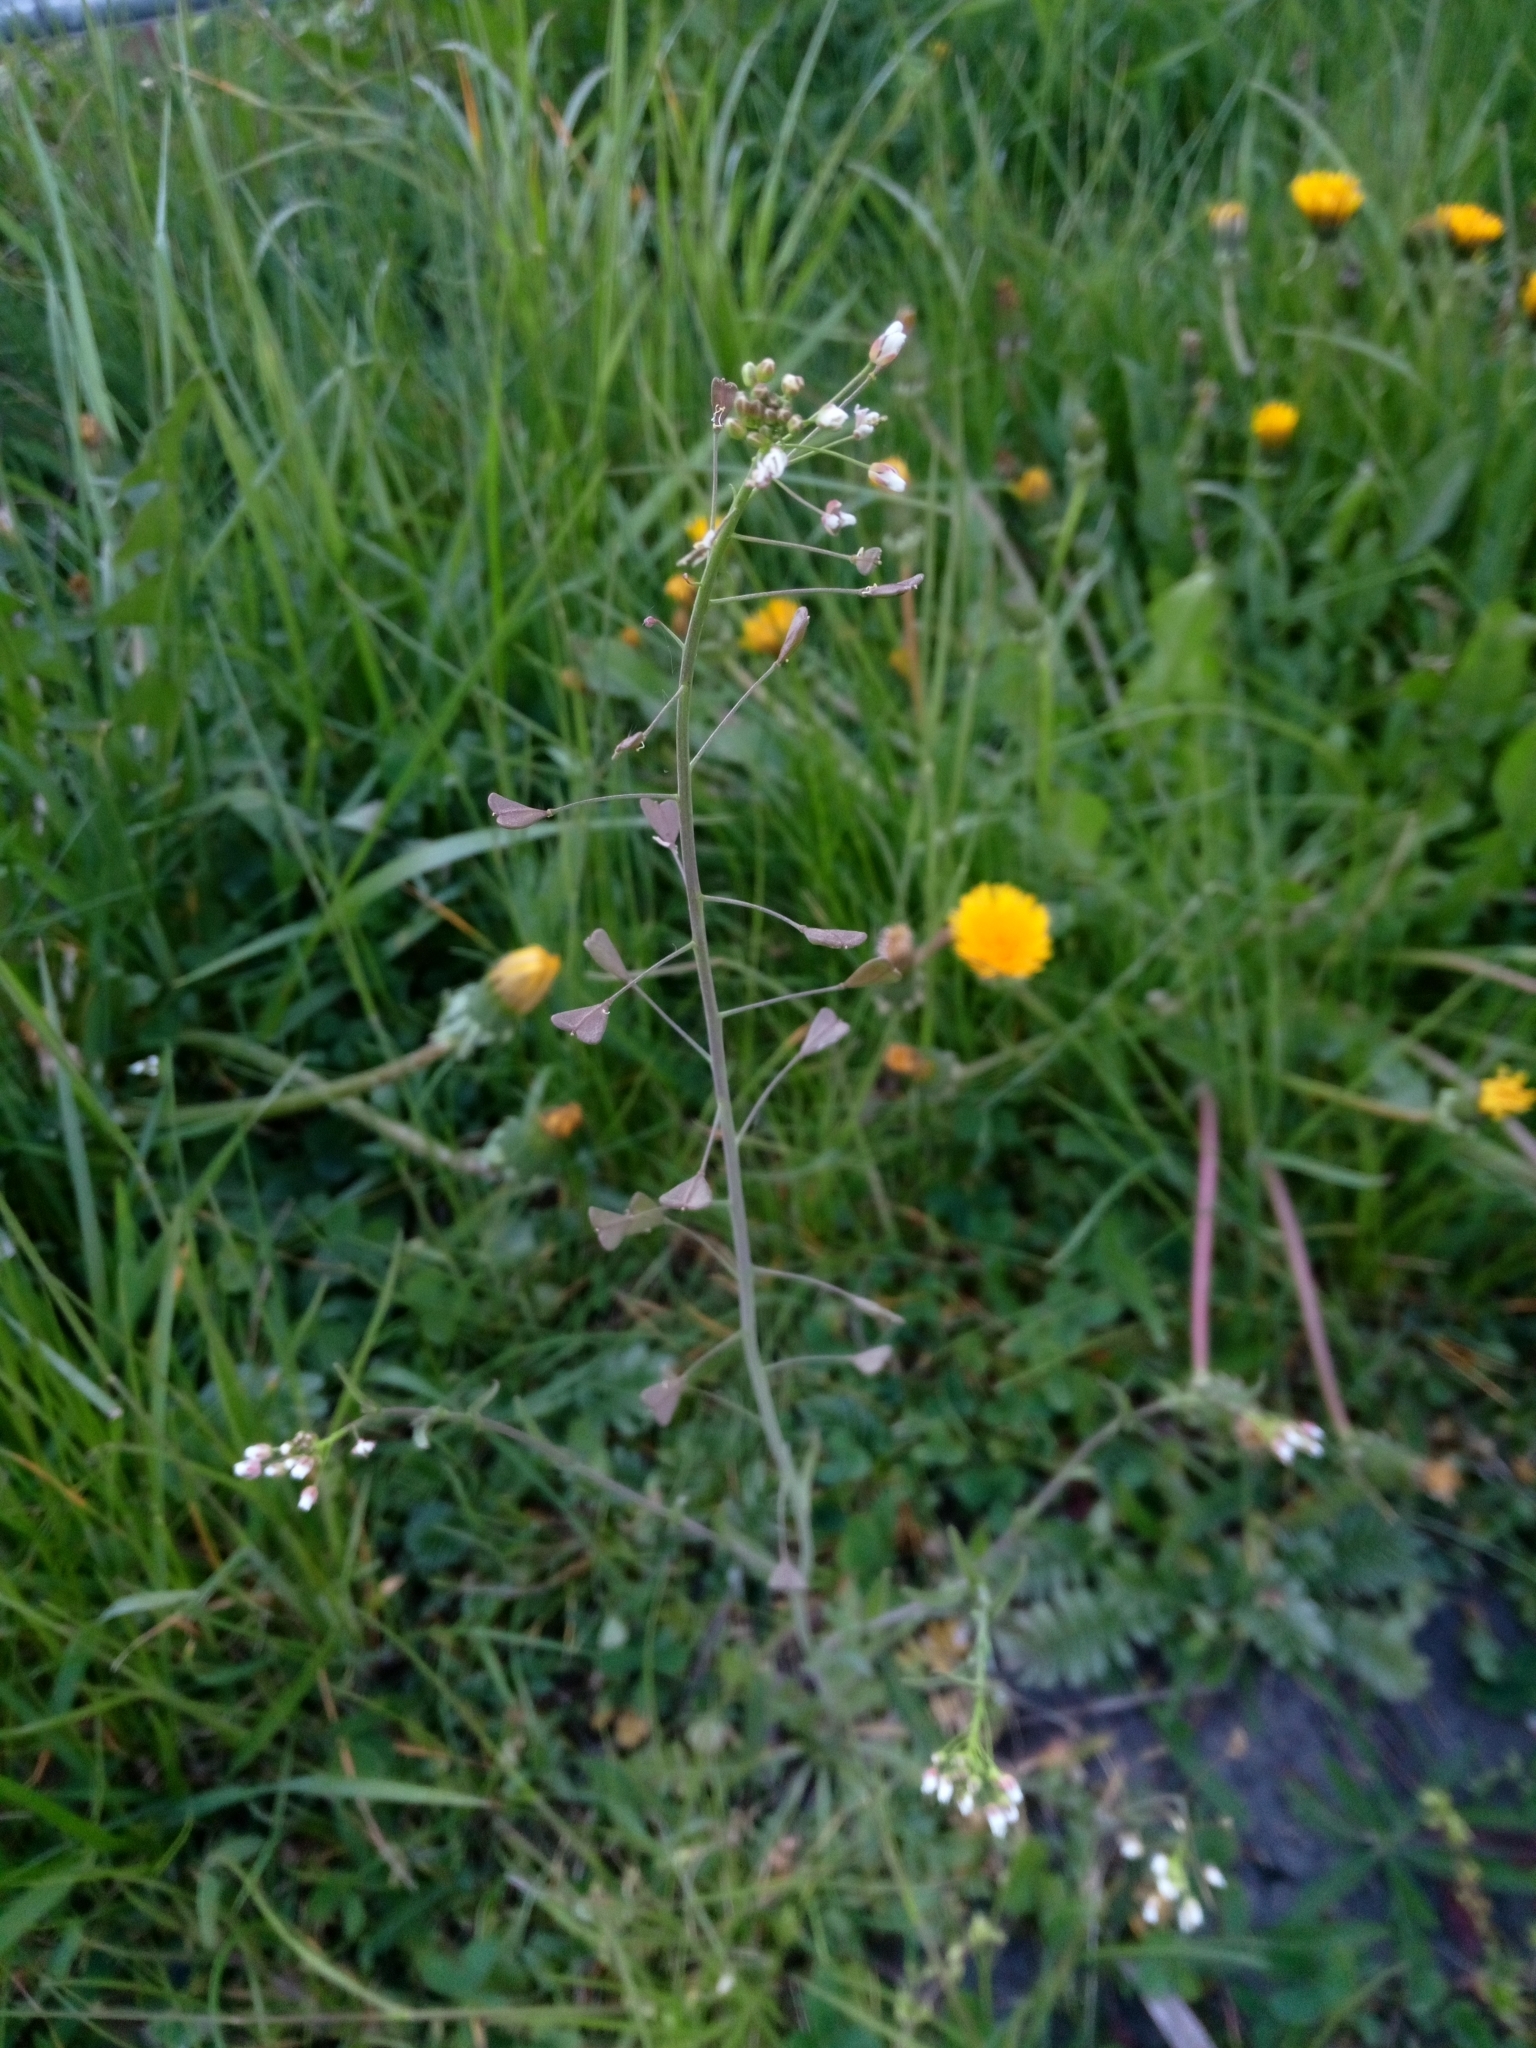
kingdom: Plantae
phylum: Tracheophyta
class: Magnoliopsida
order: Brassicales
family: Brassicaceae
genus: Capsella
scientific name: Capsella bursa-pastoris
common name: Shepherd's purse
